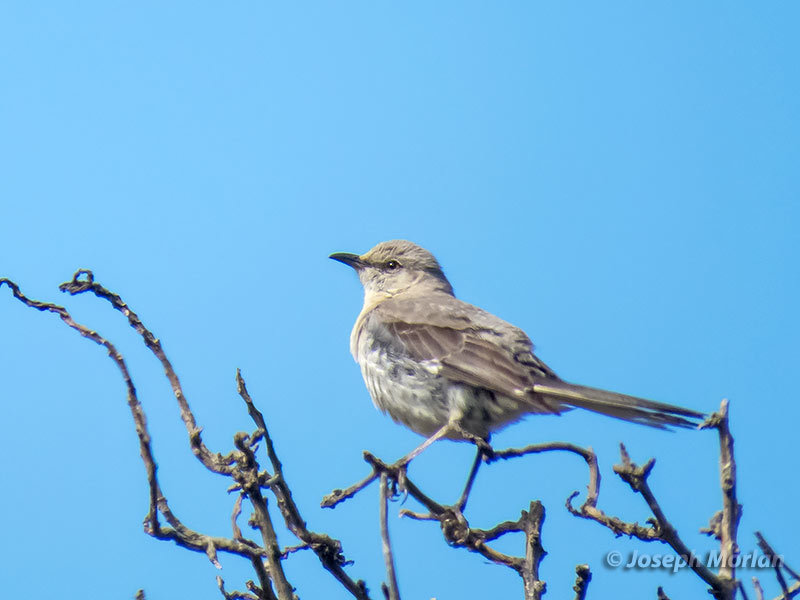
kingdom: Animalia
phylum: Chordata
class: Aves
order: Passeriformes
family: Mimidae
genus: Mimus
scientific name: Mimus polyglottos
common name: Northern mockingbird
